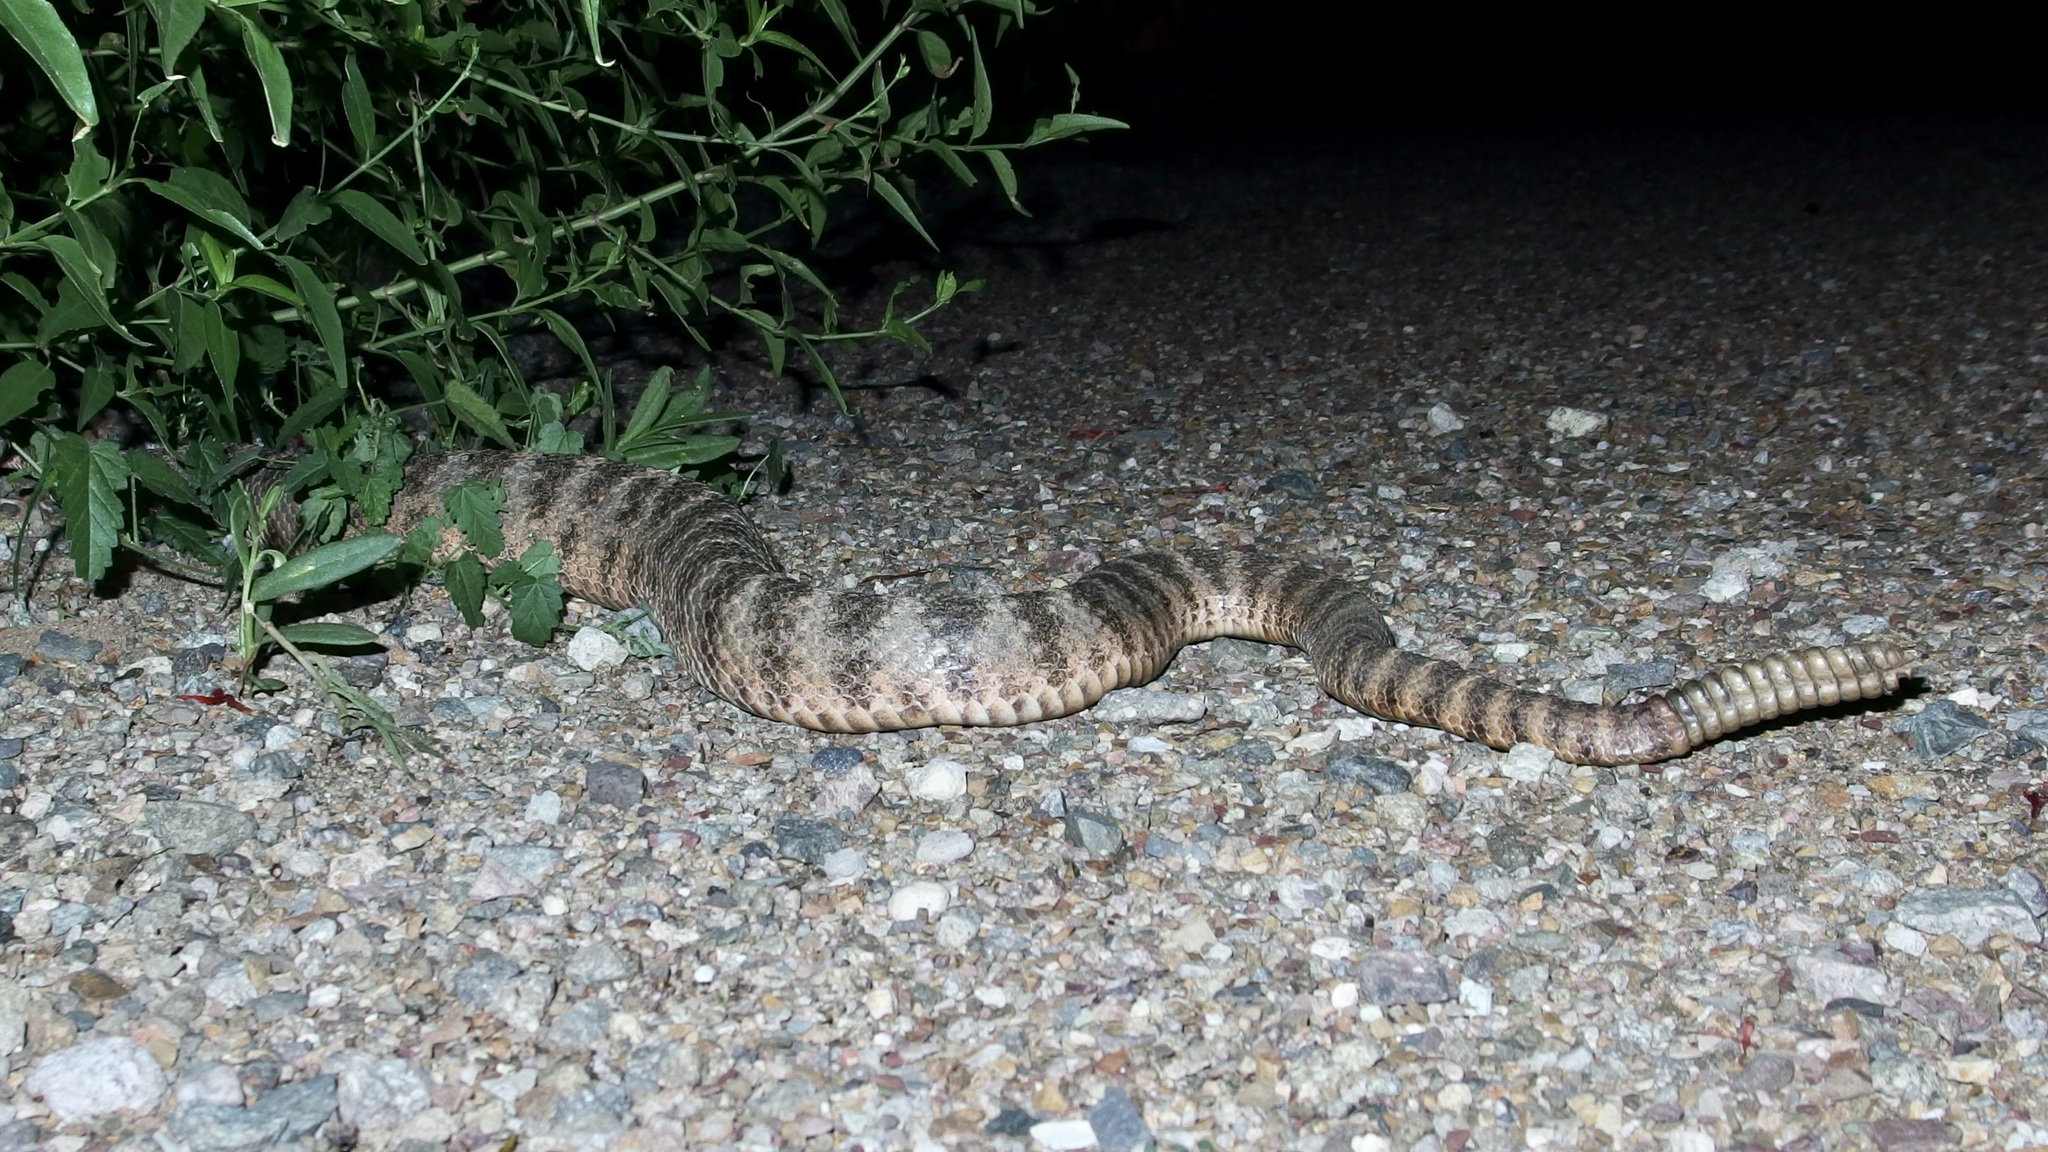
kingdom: Animalia
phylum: Chordata
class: Squamata
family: Viperidae
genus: Crotalus
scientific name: Crotalus tigris
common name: Tiger rattlesnake
